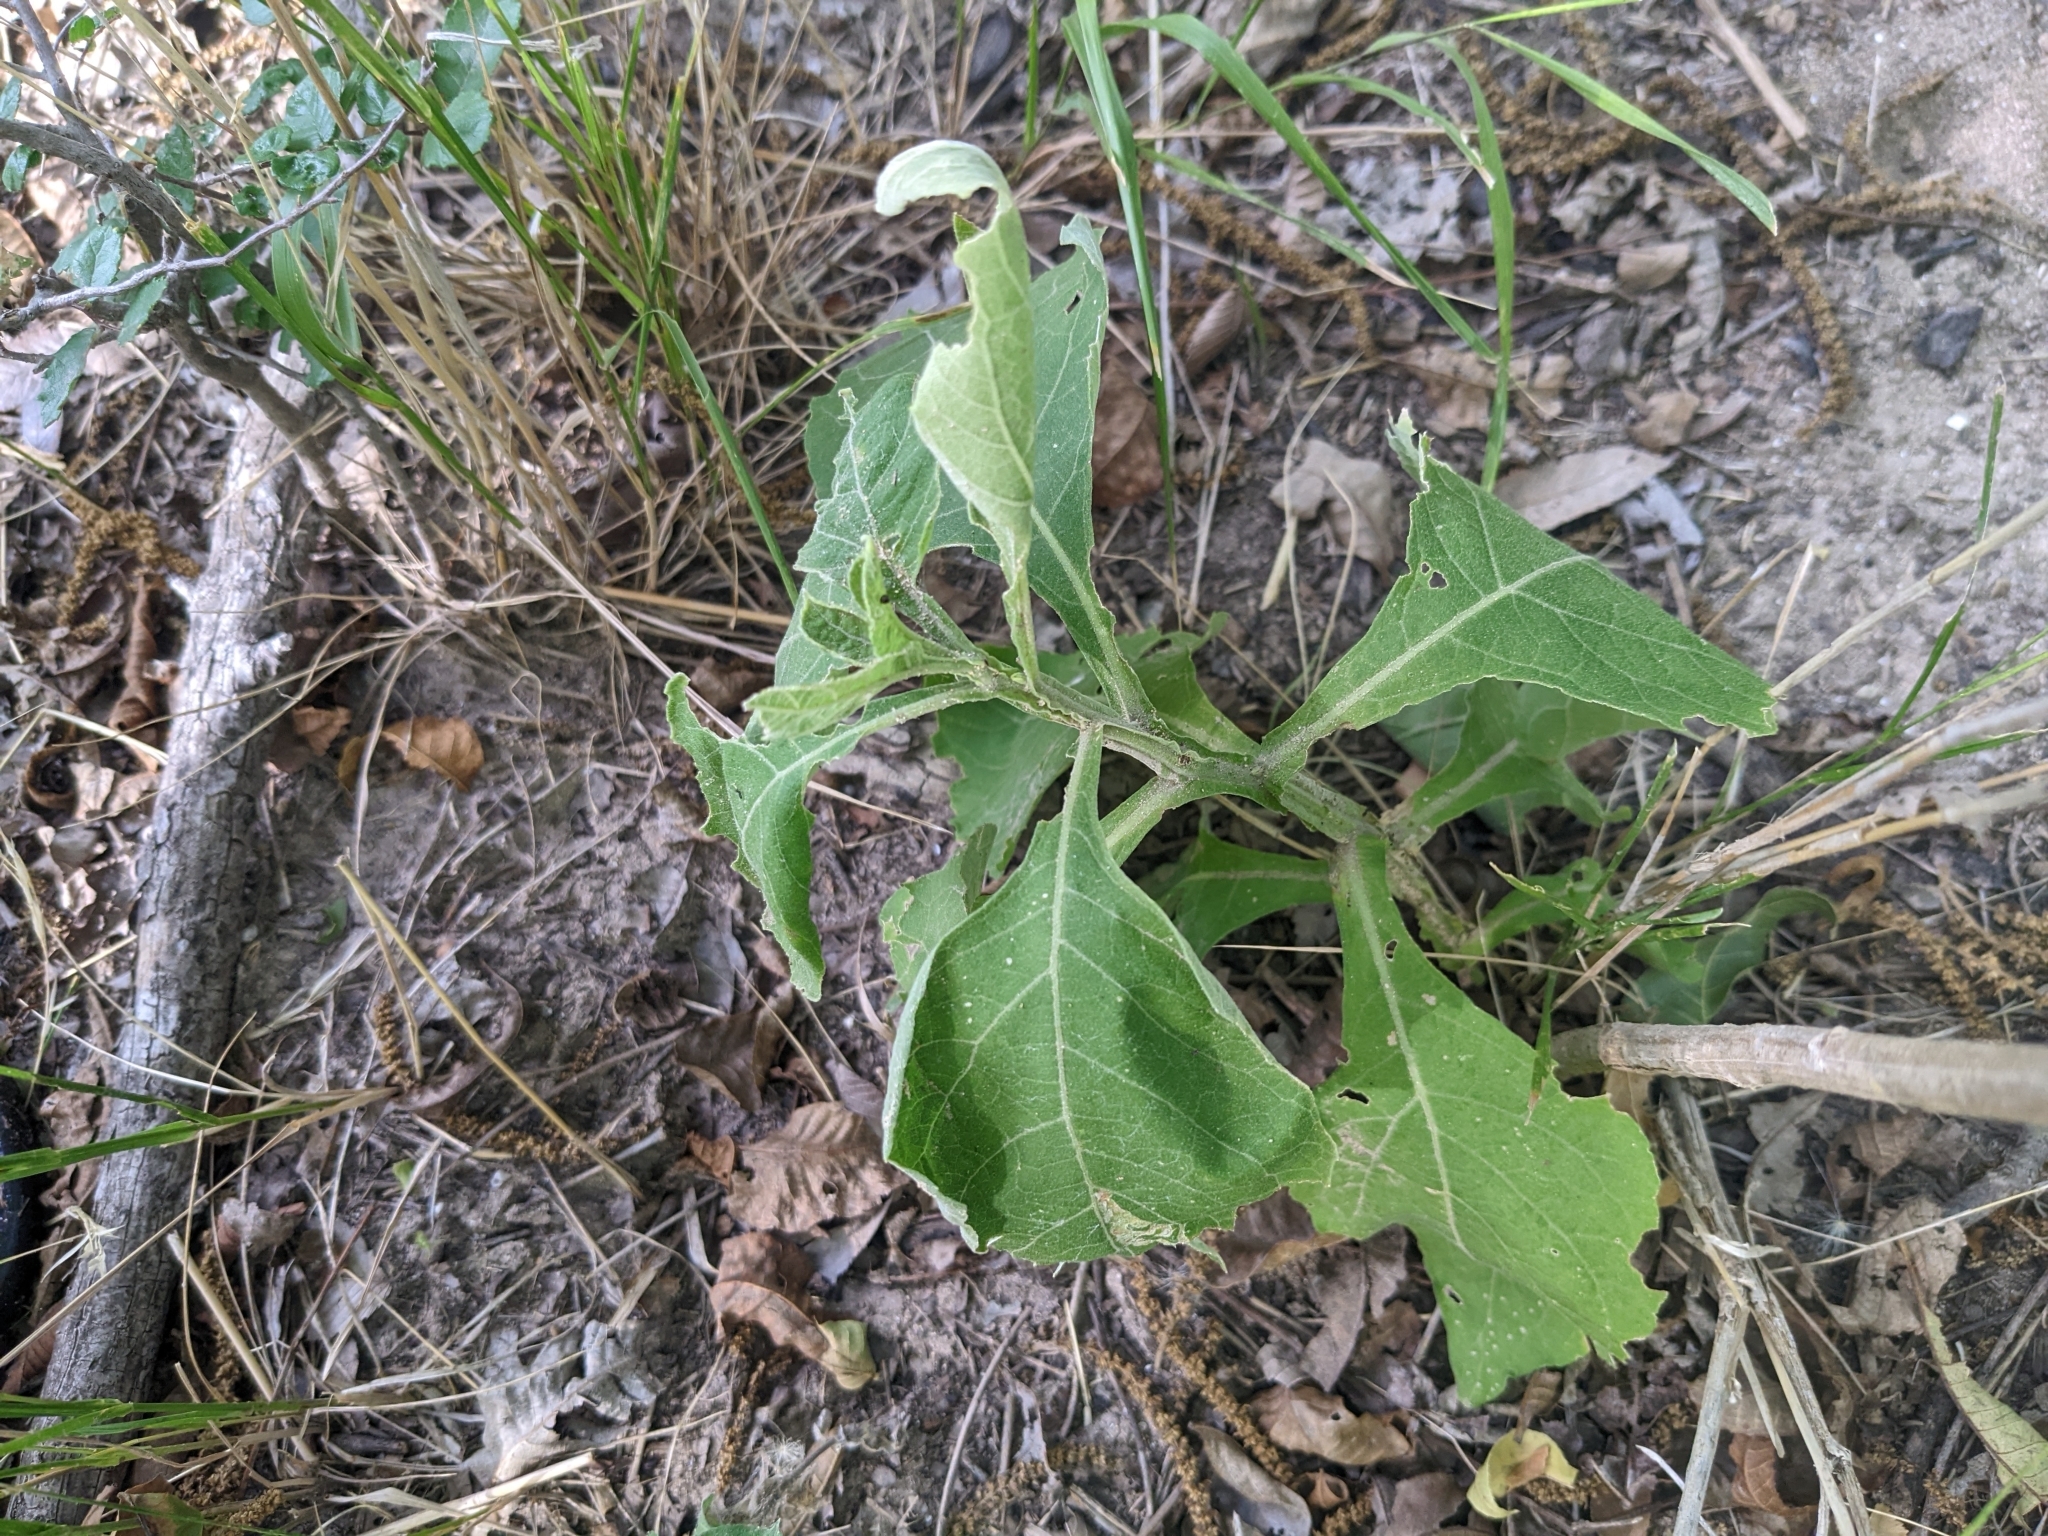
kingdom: Plantae
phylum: Tracheophyta
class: Magnoliopsida
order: Asterales
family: Asteraceae
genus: Verbesina
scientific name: Verbesina virginica
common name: Frostweed
